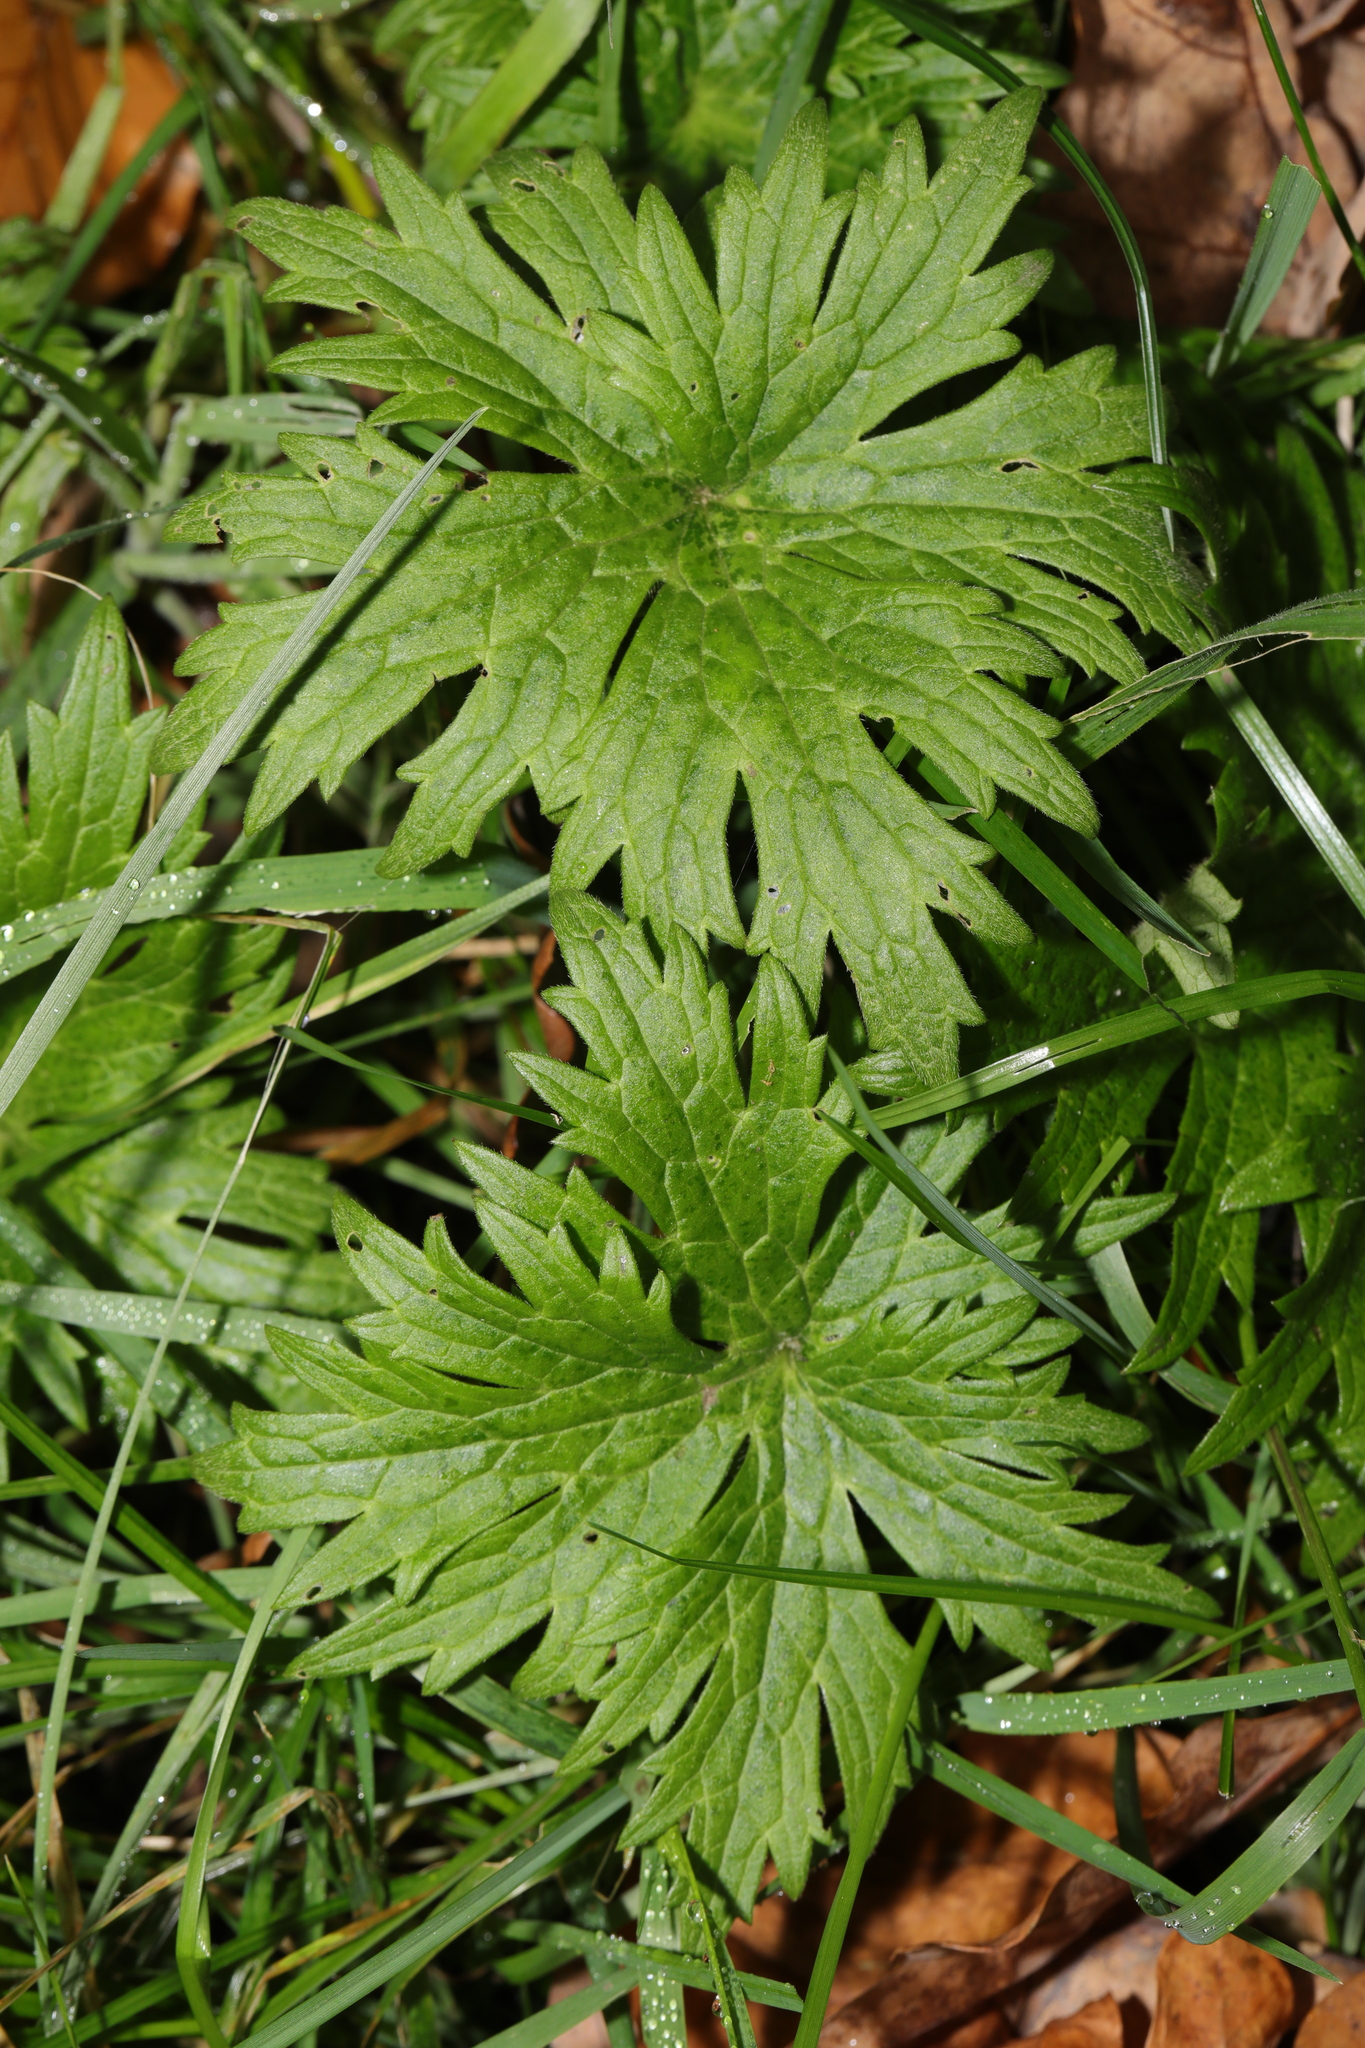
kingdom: Plantae
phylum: Tracheophyta
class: Magnoliopsida
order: Ranunculales
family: Ranunculaceae
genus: Ranunculus
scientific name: Ranunculus acris
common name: Meadow buttercup
